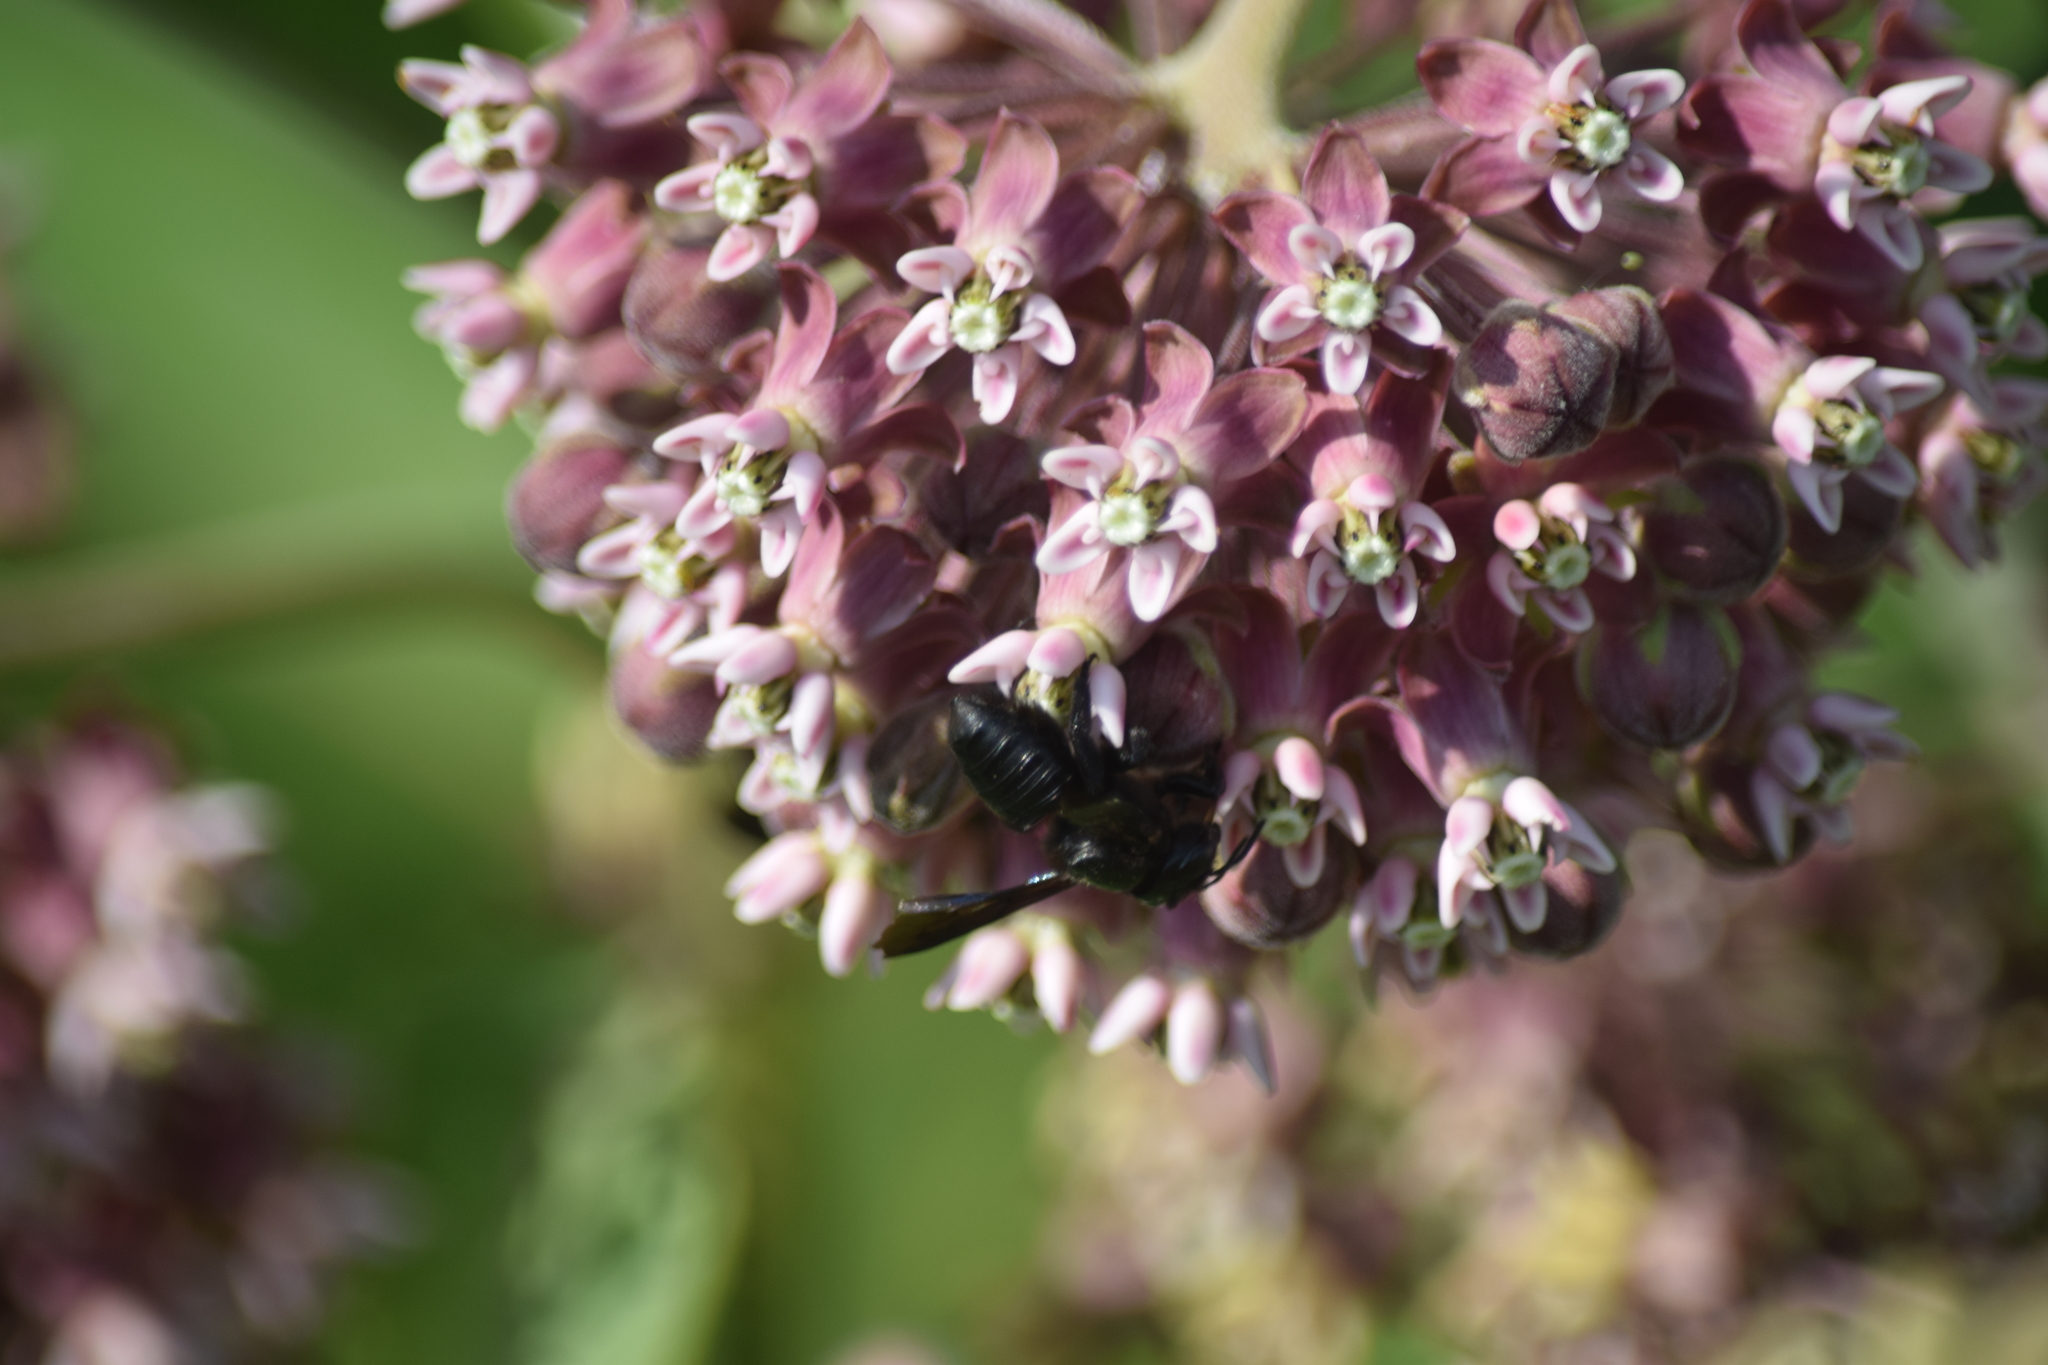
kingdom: Animalia
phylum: Arthropoda
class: Insecta
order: Hymenoptera
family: Megachilidae
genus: Megachile
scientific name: Megachile xylocopoides
